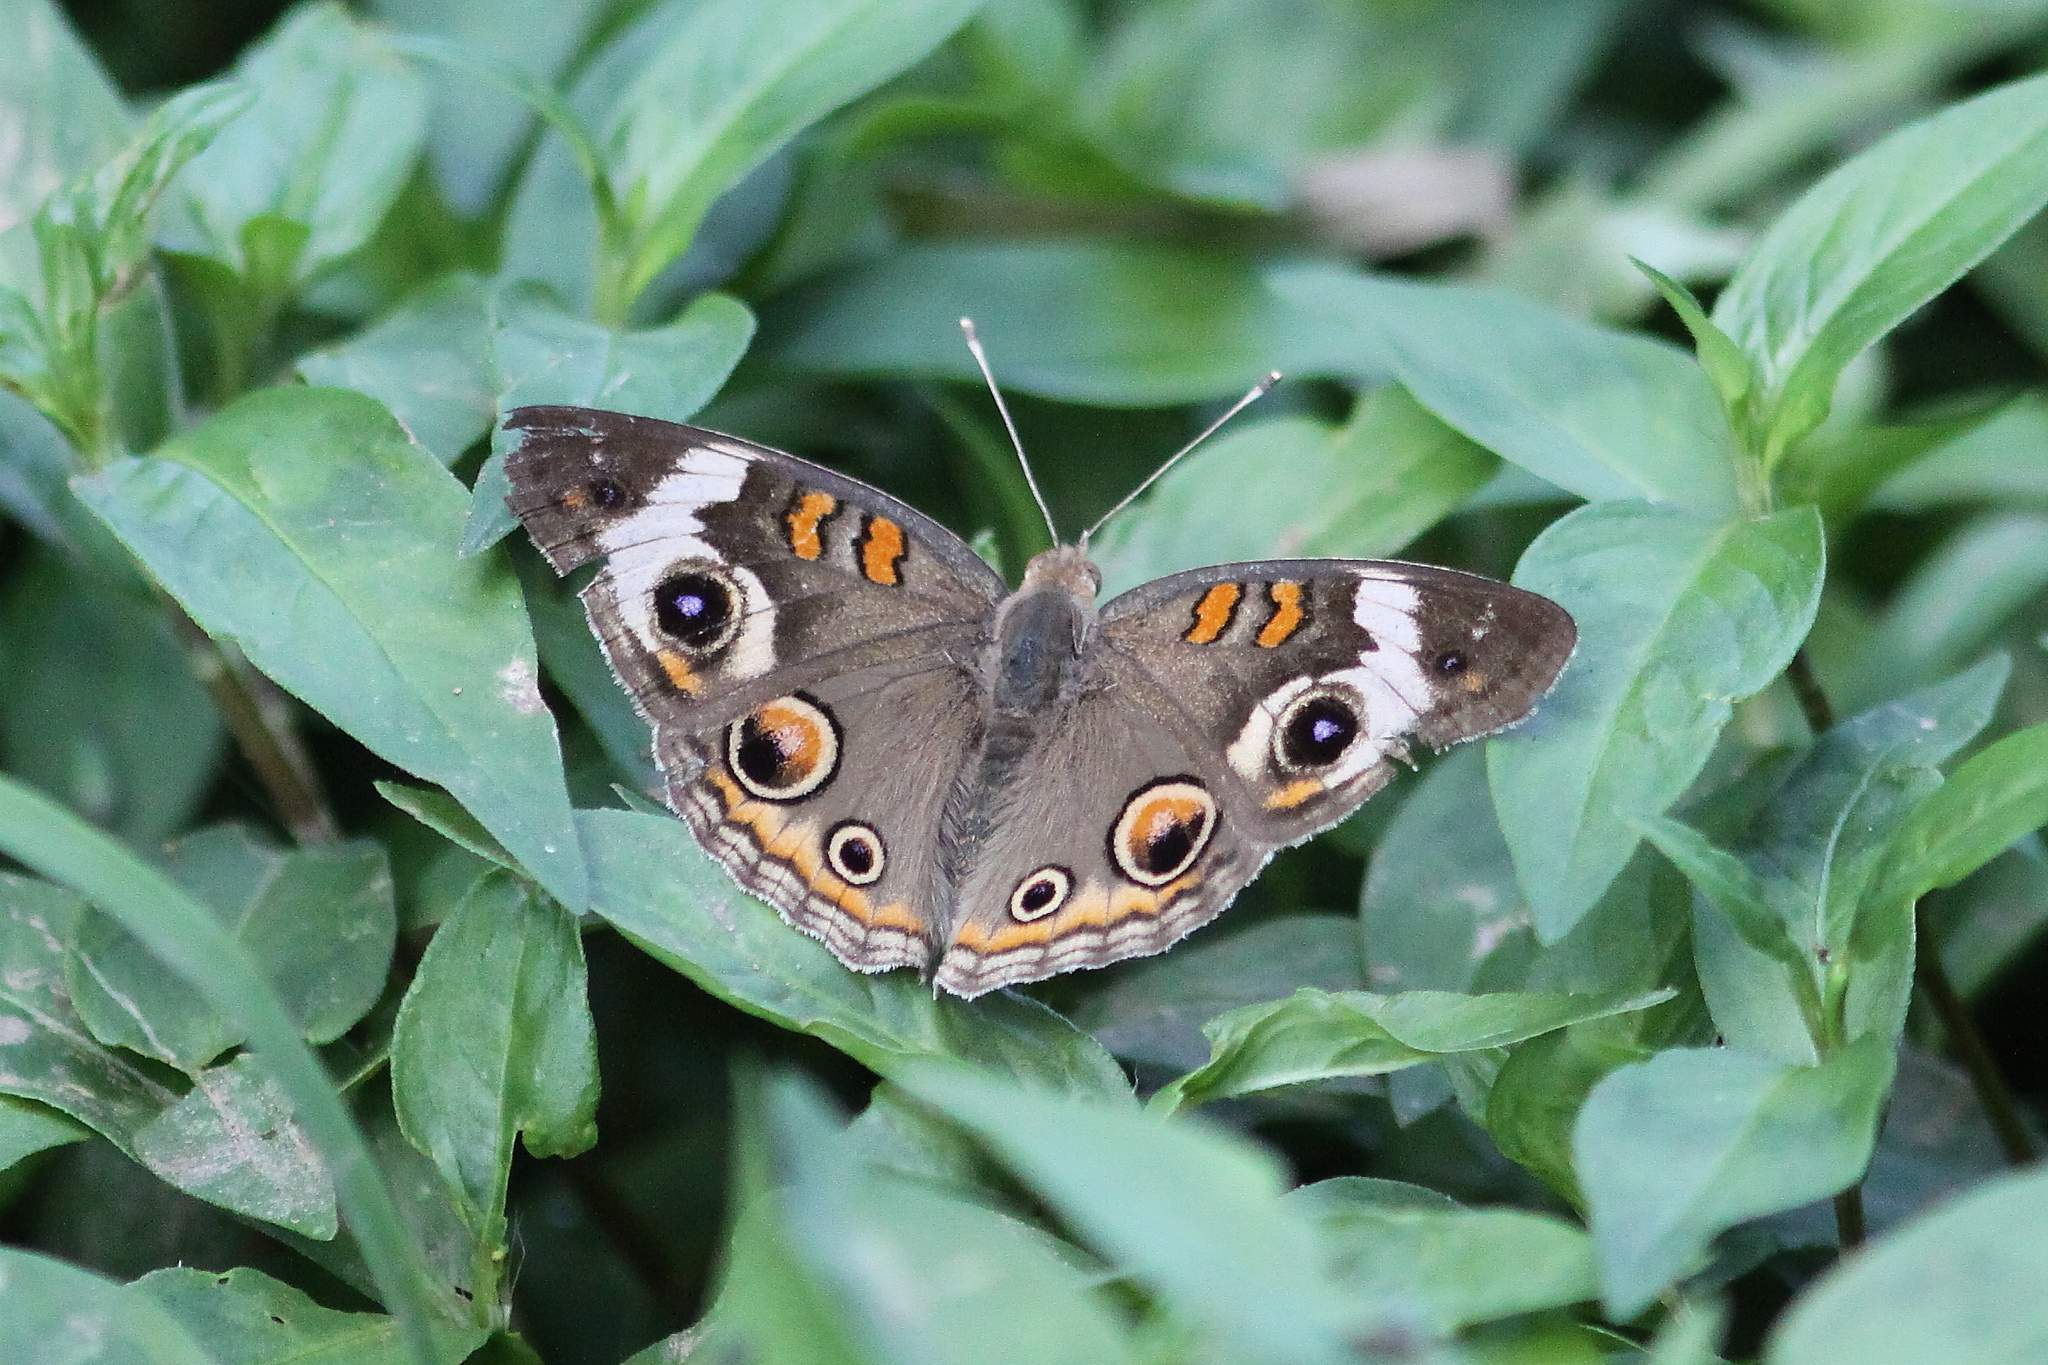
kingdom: Animalia
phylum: Arthropoda
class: Insecta
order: Lepidoptera
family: Nymphalidae
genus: Junonia
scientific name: Junonia coenia
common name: Common buckeye
